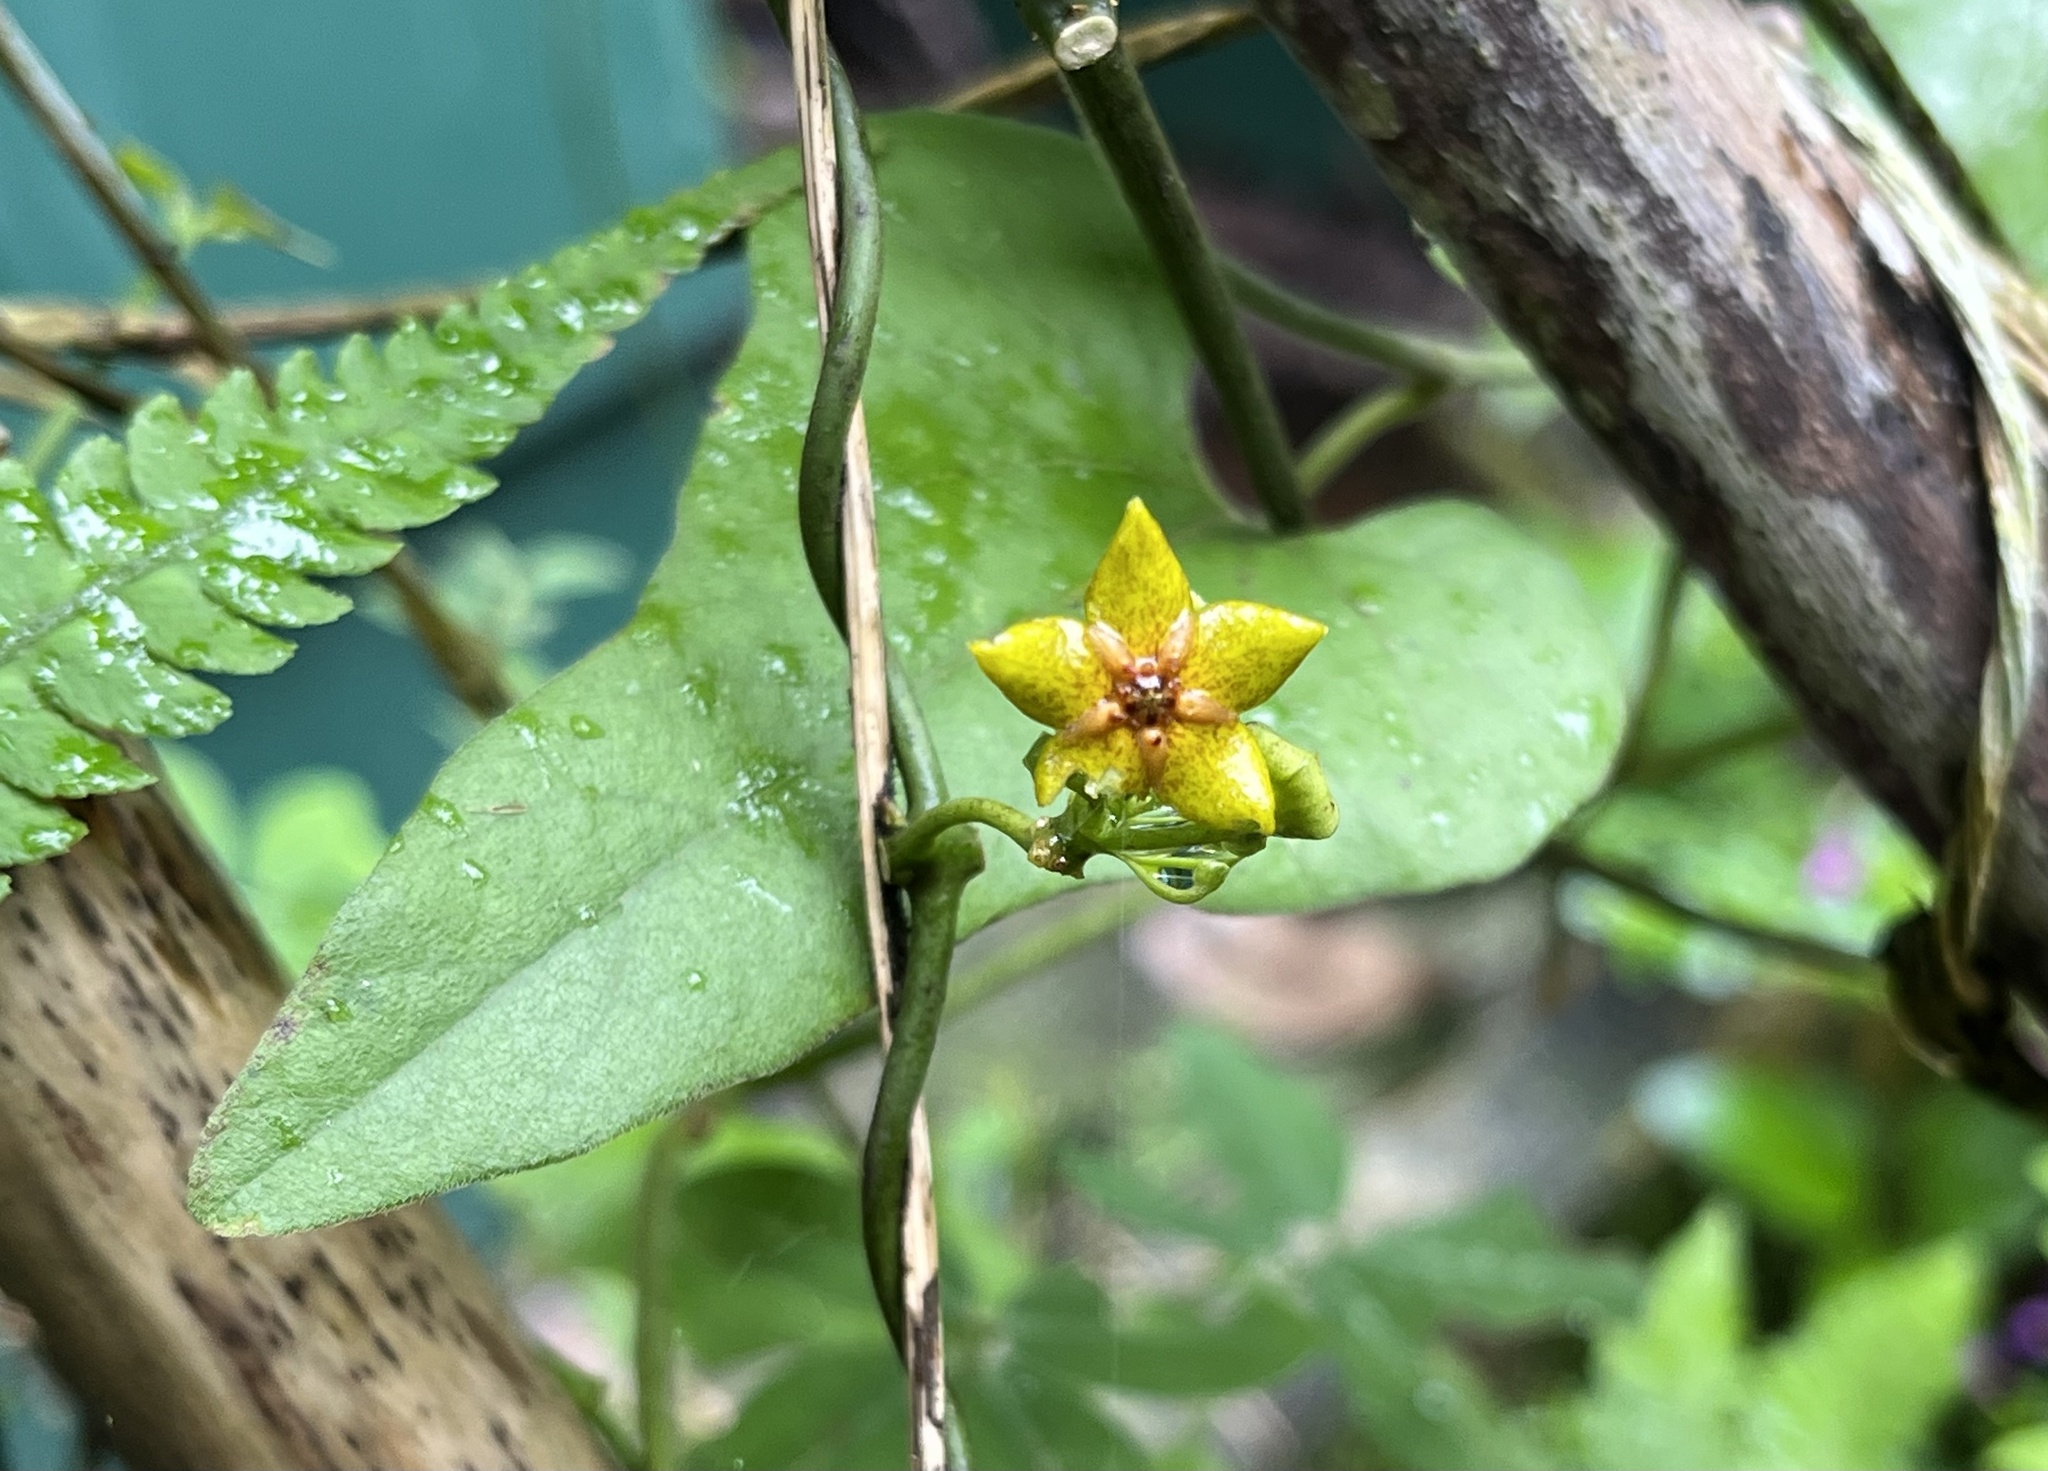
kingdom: Plantae
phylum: Tracheophyta
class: Magnoliopsida
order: Gentianales
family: Apocynaceae
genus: Heterostemma
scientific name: Heterostemma brownii
